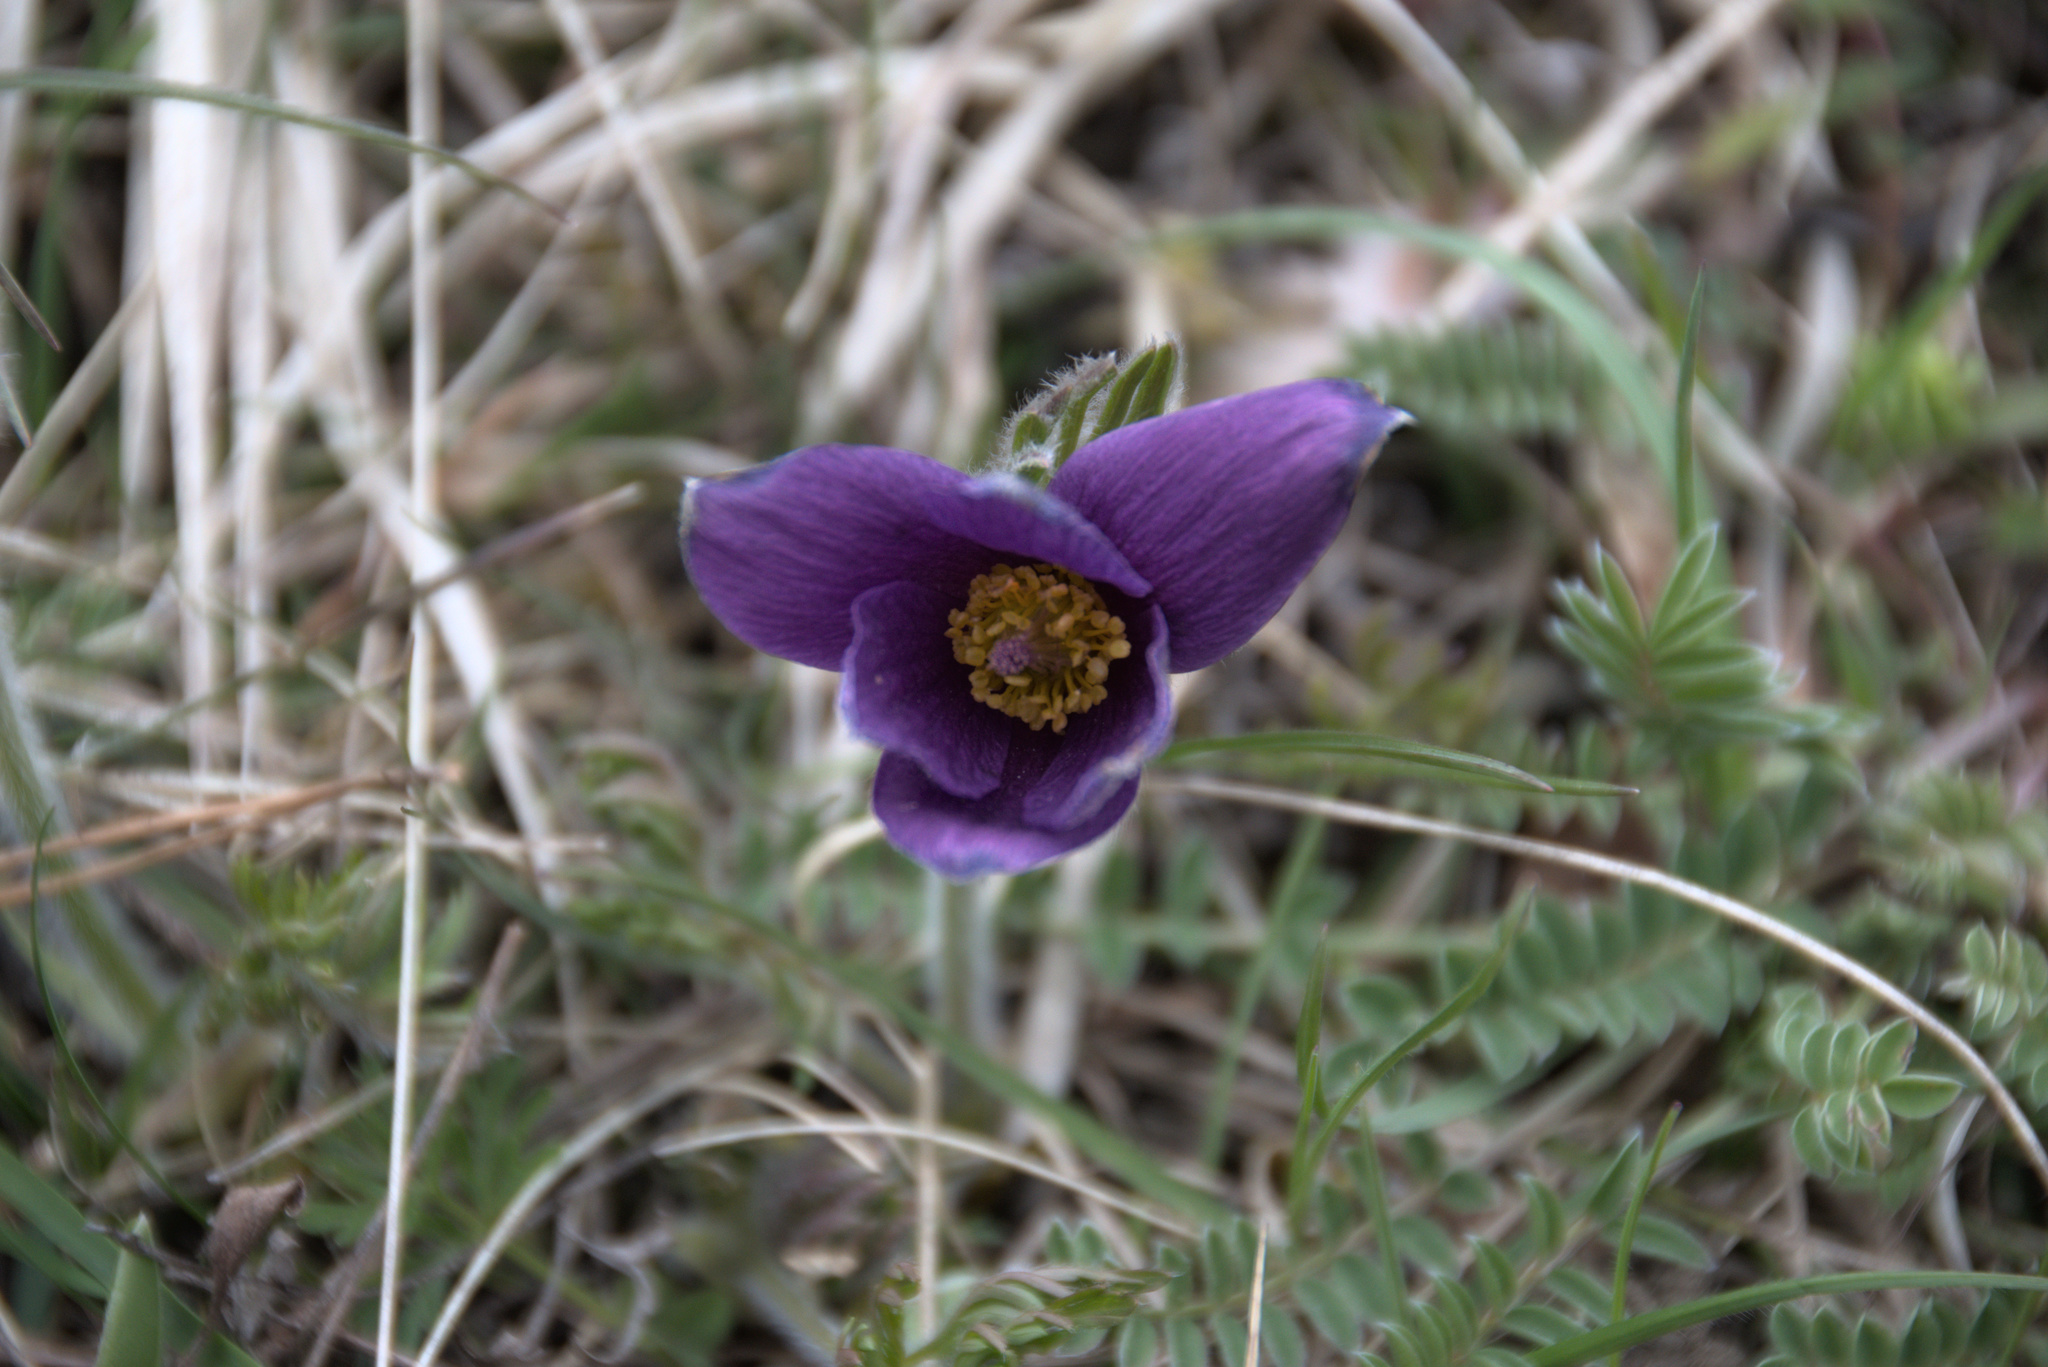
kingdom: Plantae
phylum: Tracheophyta
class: Magnoliopsida
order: Ranunculales
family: Ranunculaceae
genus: Pulsatilla
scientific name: Pulsatilla vulgaris
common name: Pasqueflower
